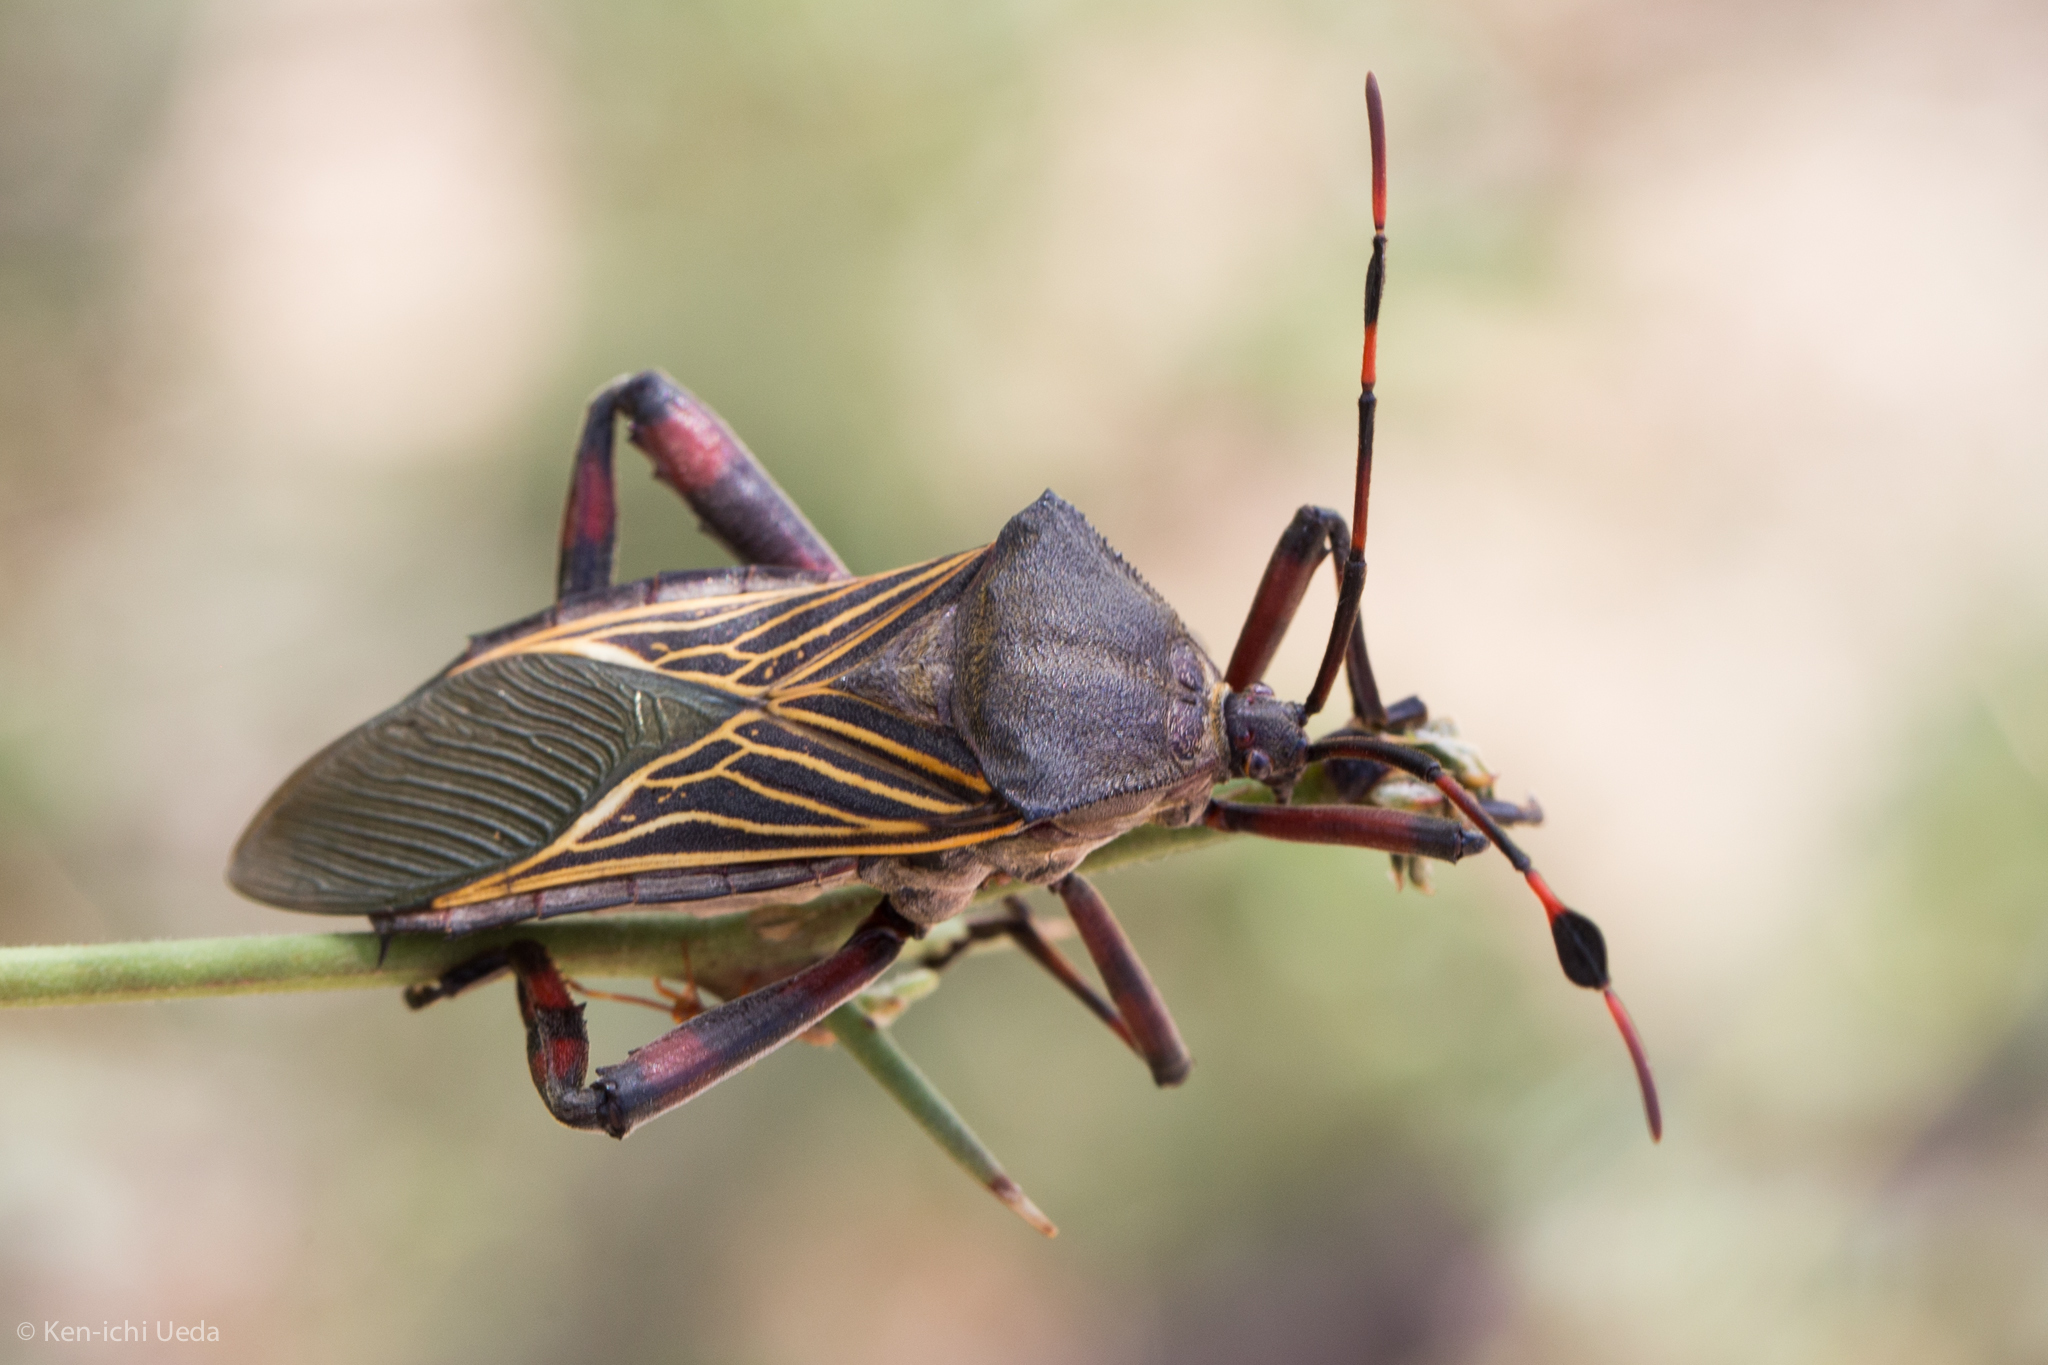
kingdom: Animalia
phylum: Arthropoda
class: Insecta
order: Hemiptera
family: Coreidae
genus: Thasus
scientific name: Thasus neocalifornicus
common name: Giant mesquite bug
